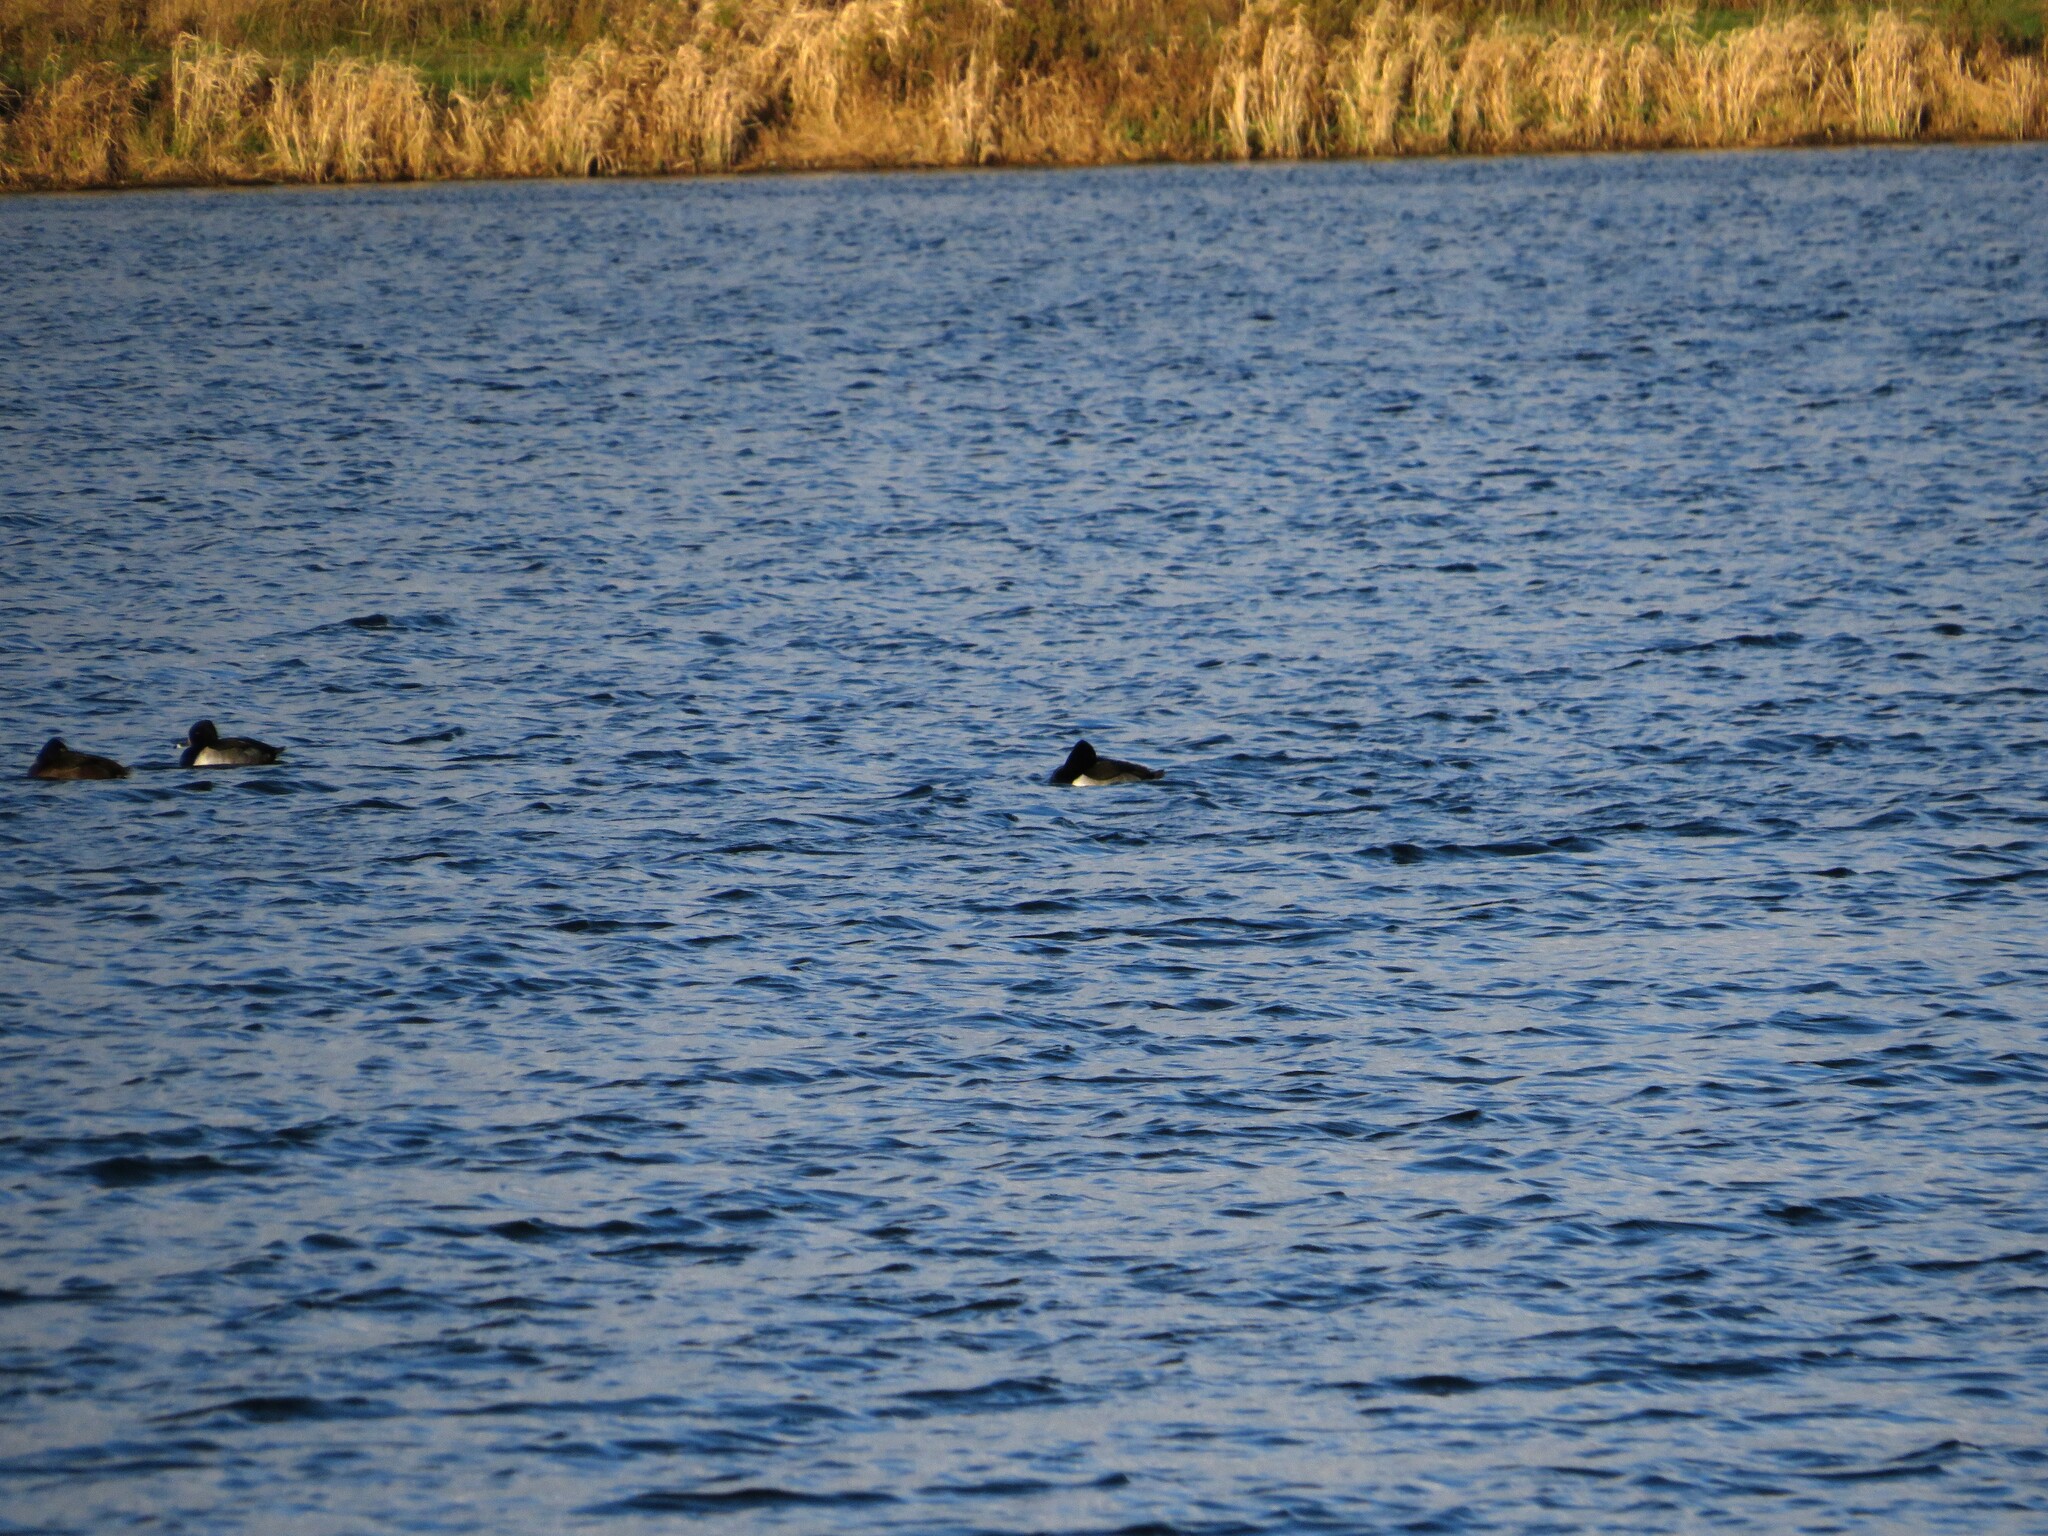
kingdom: Animalia
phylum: Chordata
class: Aves
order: Anseriformes
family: Anatidae
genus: Aythya
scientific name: Aythya collaris
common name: Ring-necked duck
